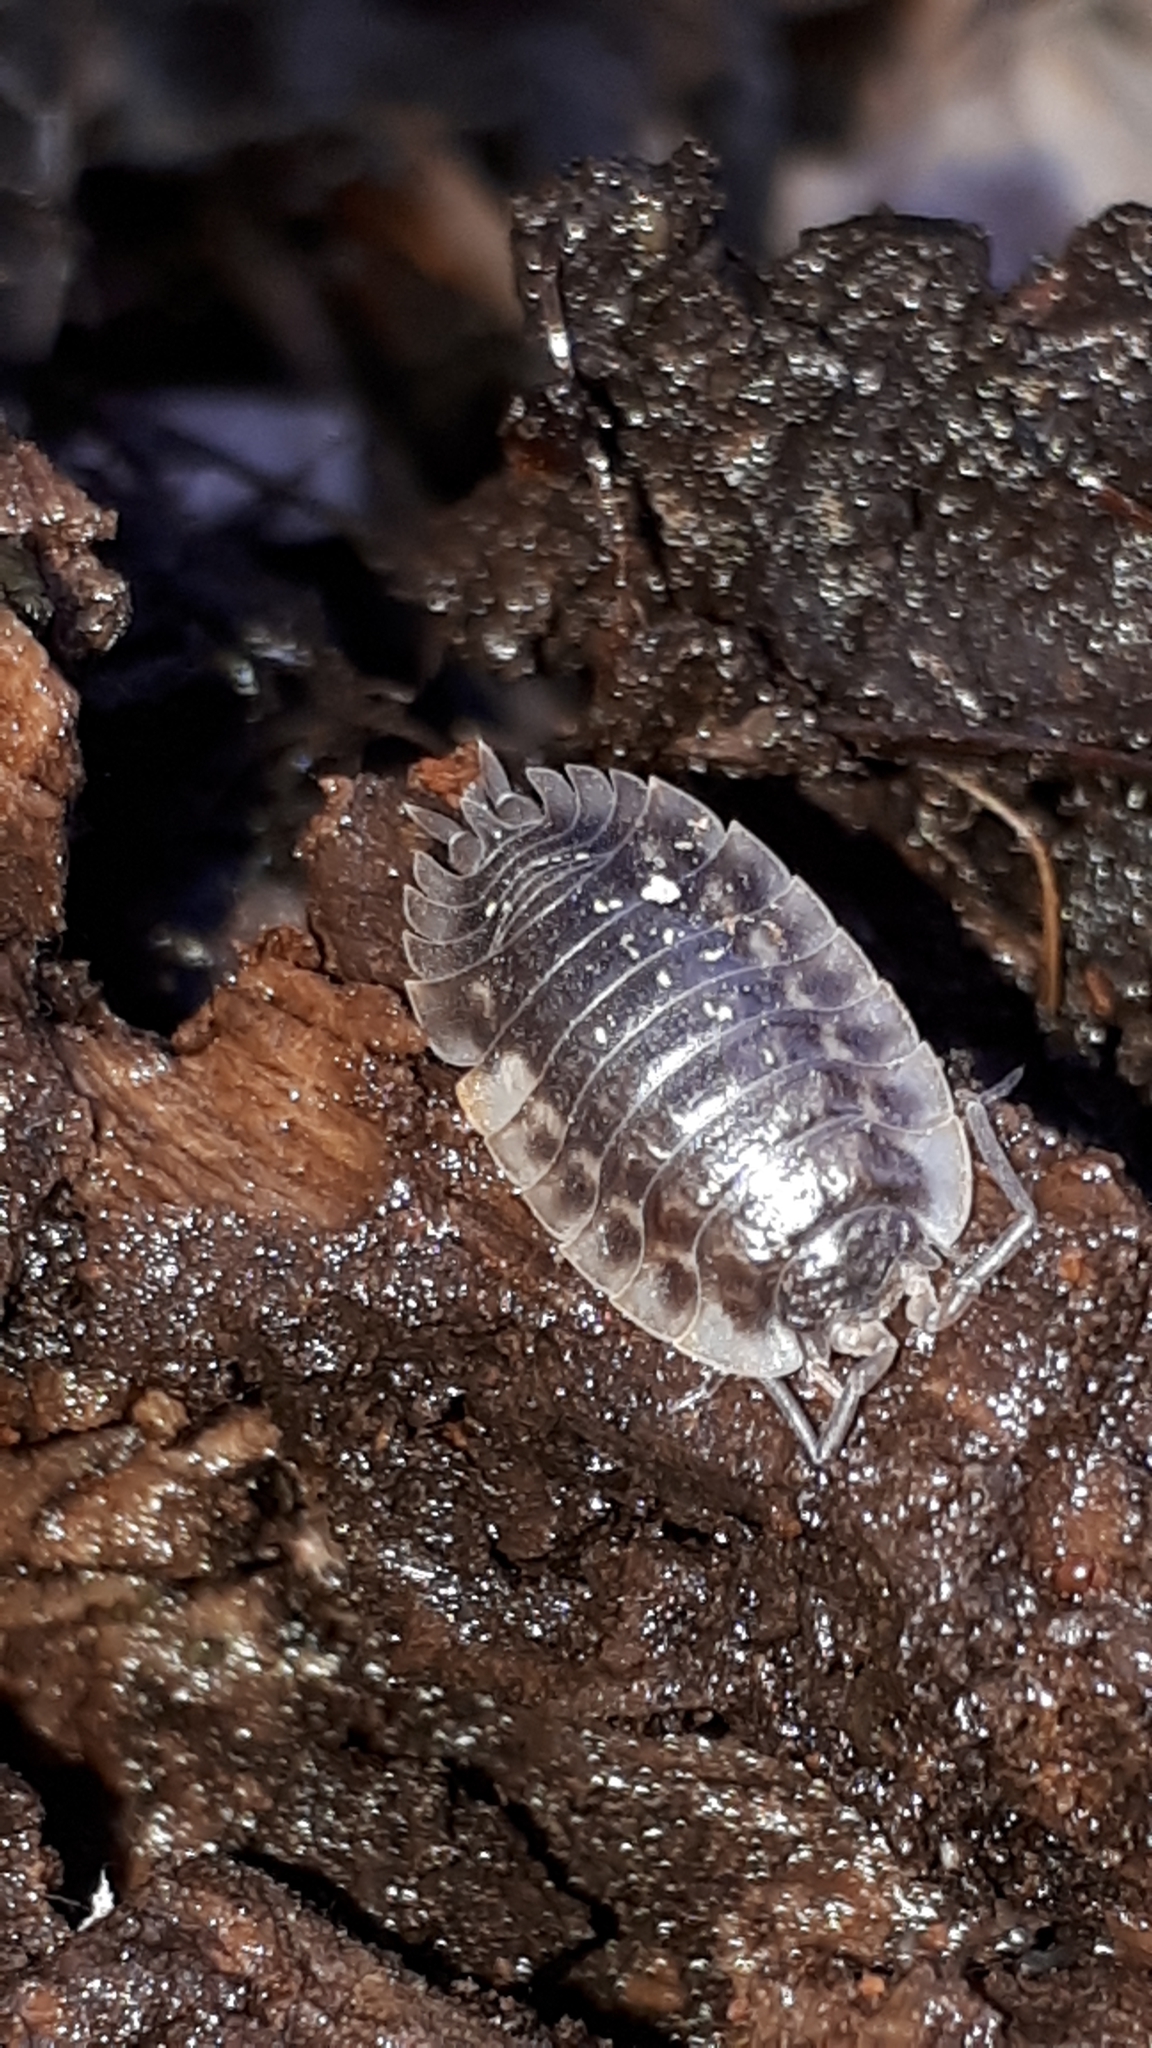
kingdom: Animalia
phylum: Arthropoda
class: Malacostraca
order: Isopoda
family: Oniscidae
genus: Oniscus
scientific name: Oniscus asellus
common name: Common shiny woodlouse
